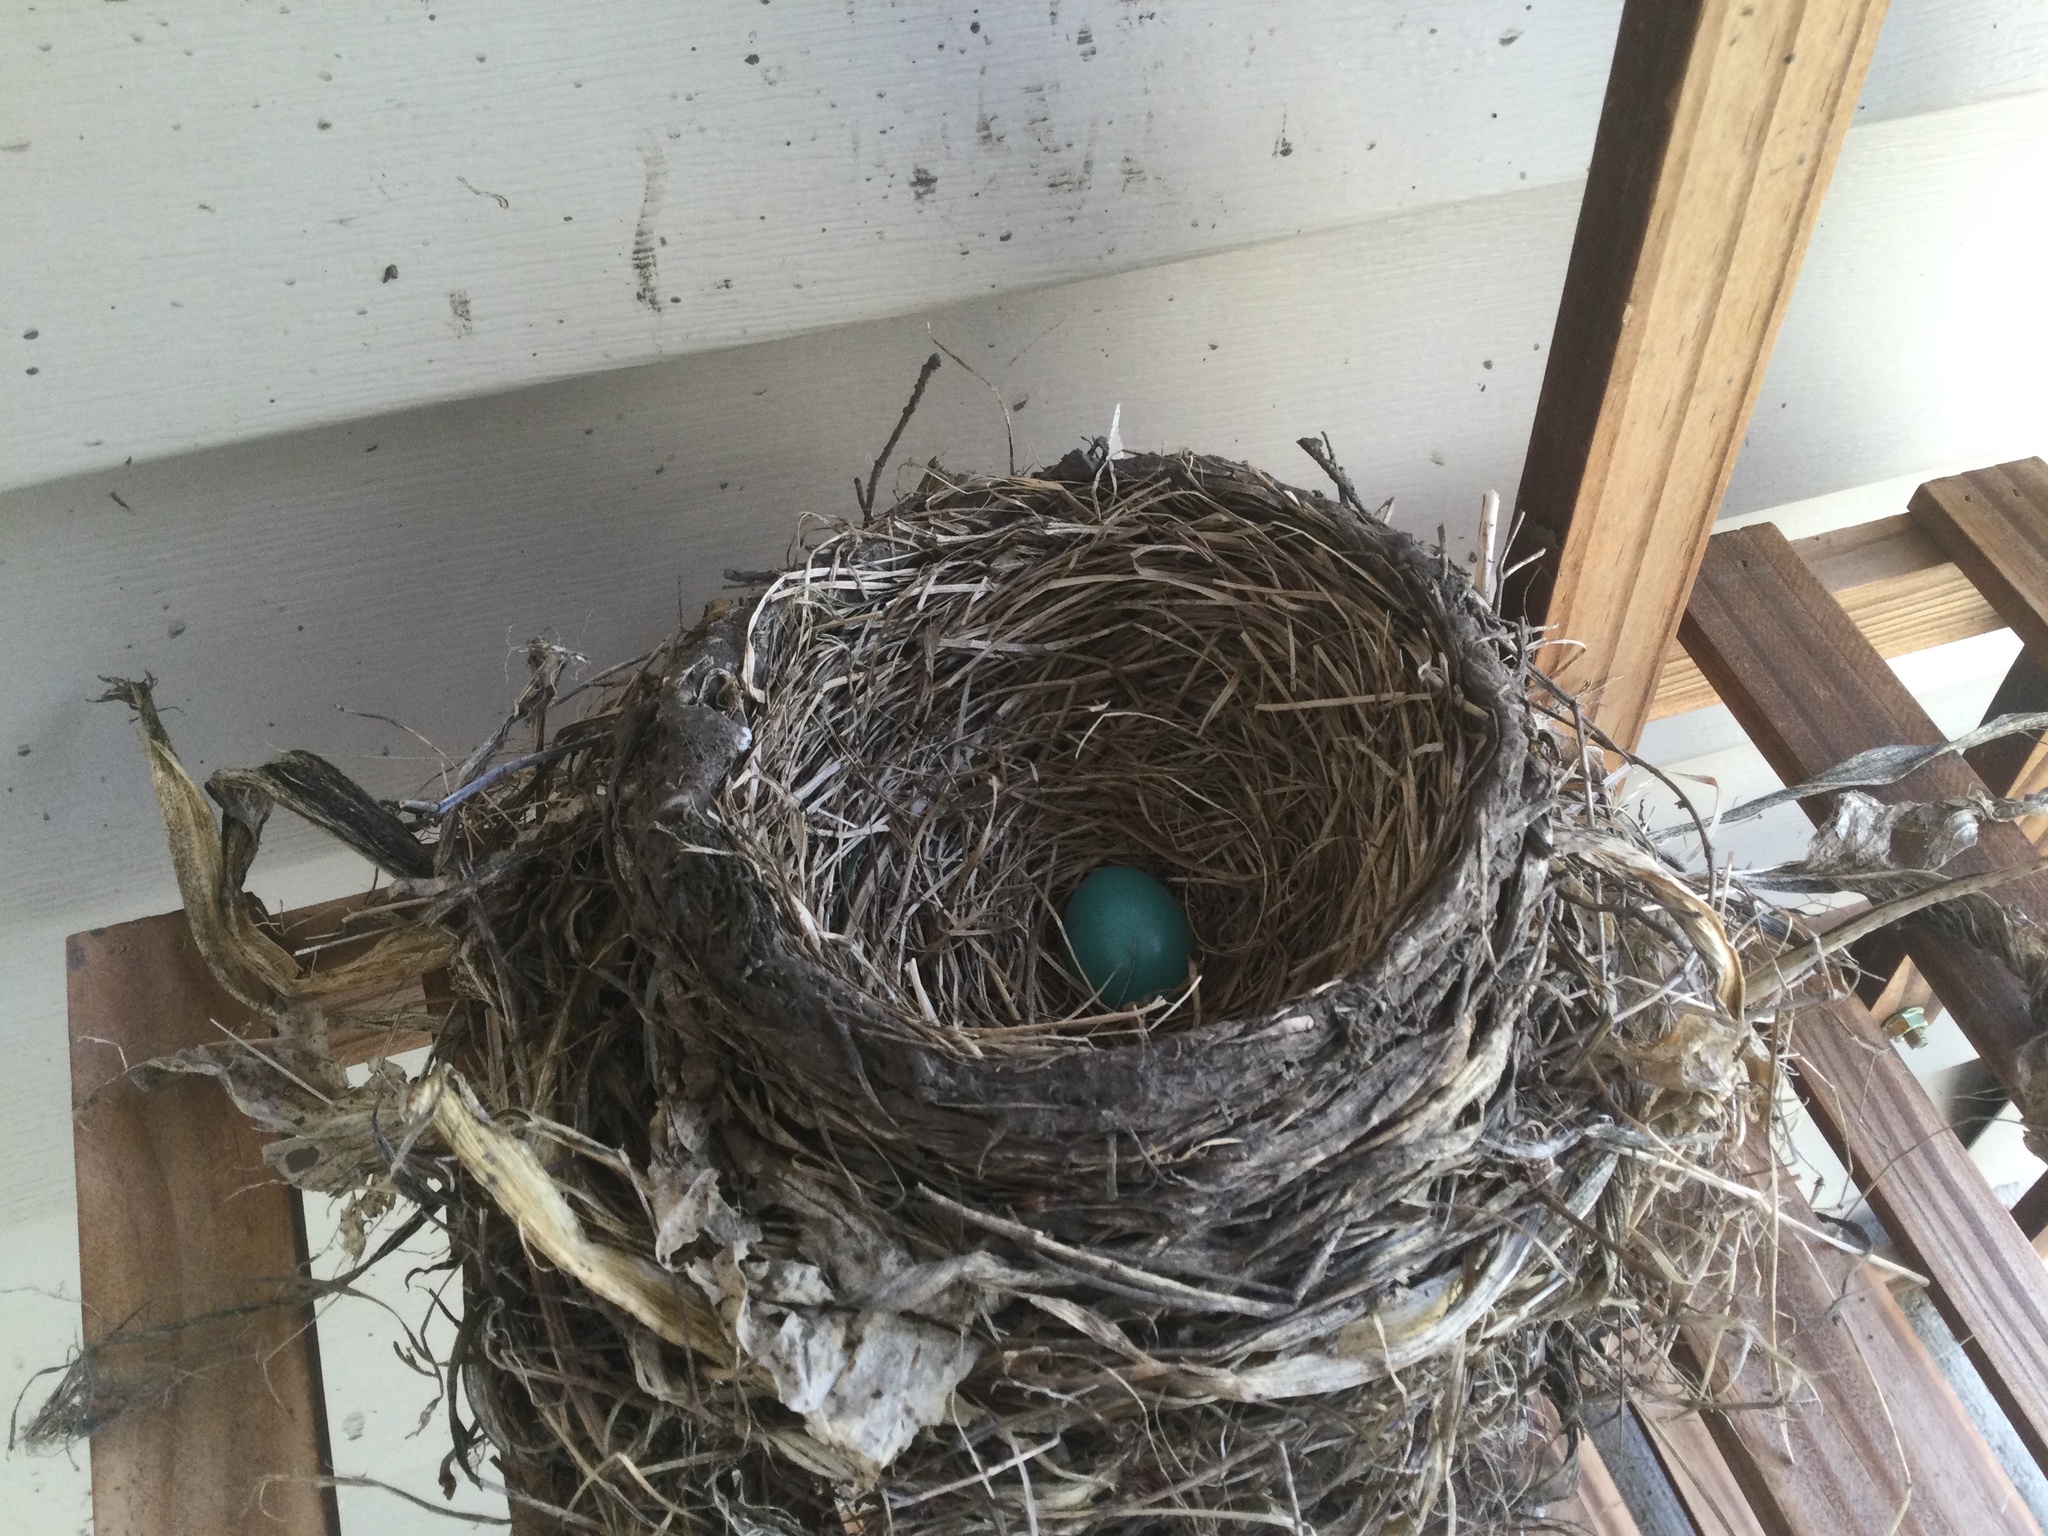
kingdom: Animalia
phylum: Chordata
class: Aves
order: Passeriformes
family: Turdidae
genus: Turdus
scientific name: Turdus migratorius
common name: American robin
